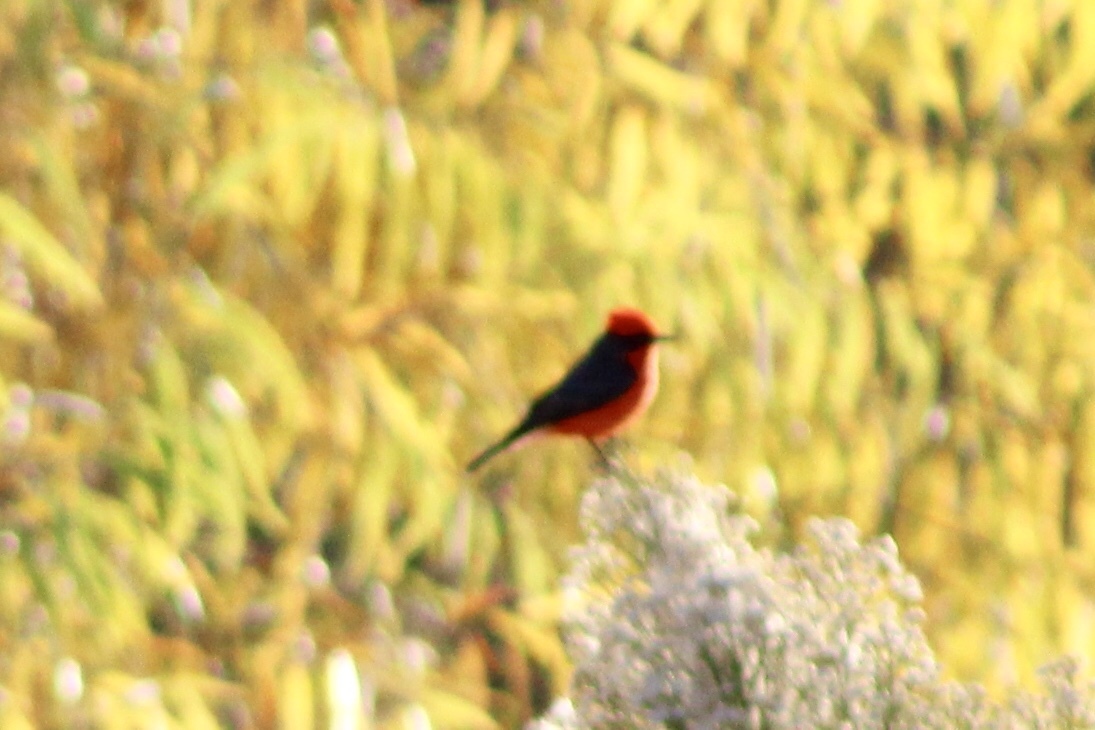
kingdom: Animalia
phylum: Chordata
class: Aves
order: Passeriformes
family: Tyrannidae
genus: Pyrocephalus
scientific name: Pyrocephalus rubinus
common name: Vermilion flycatcher
